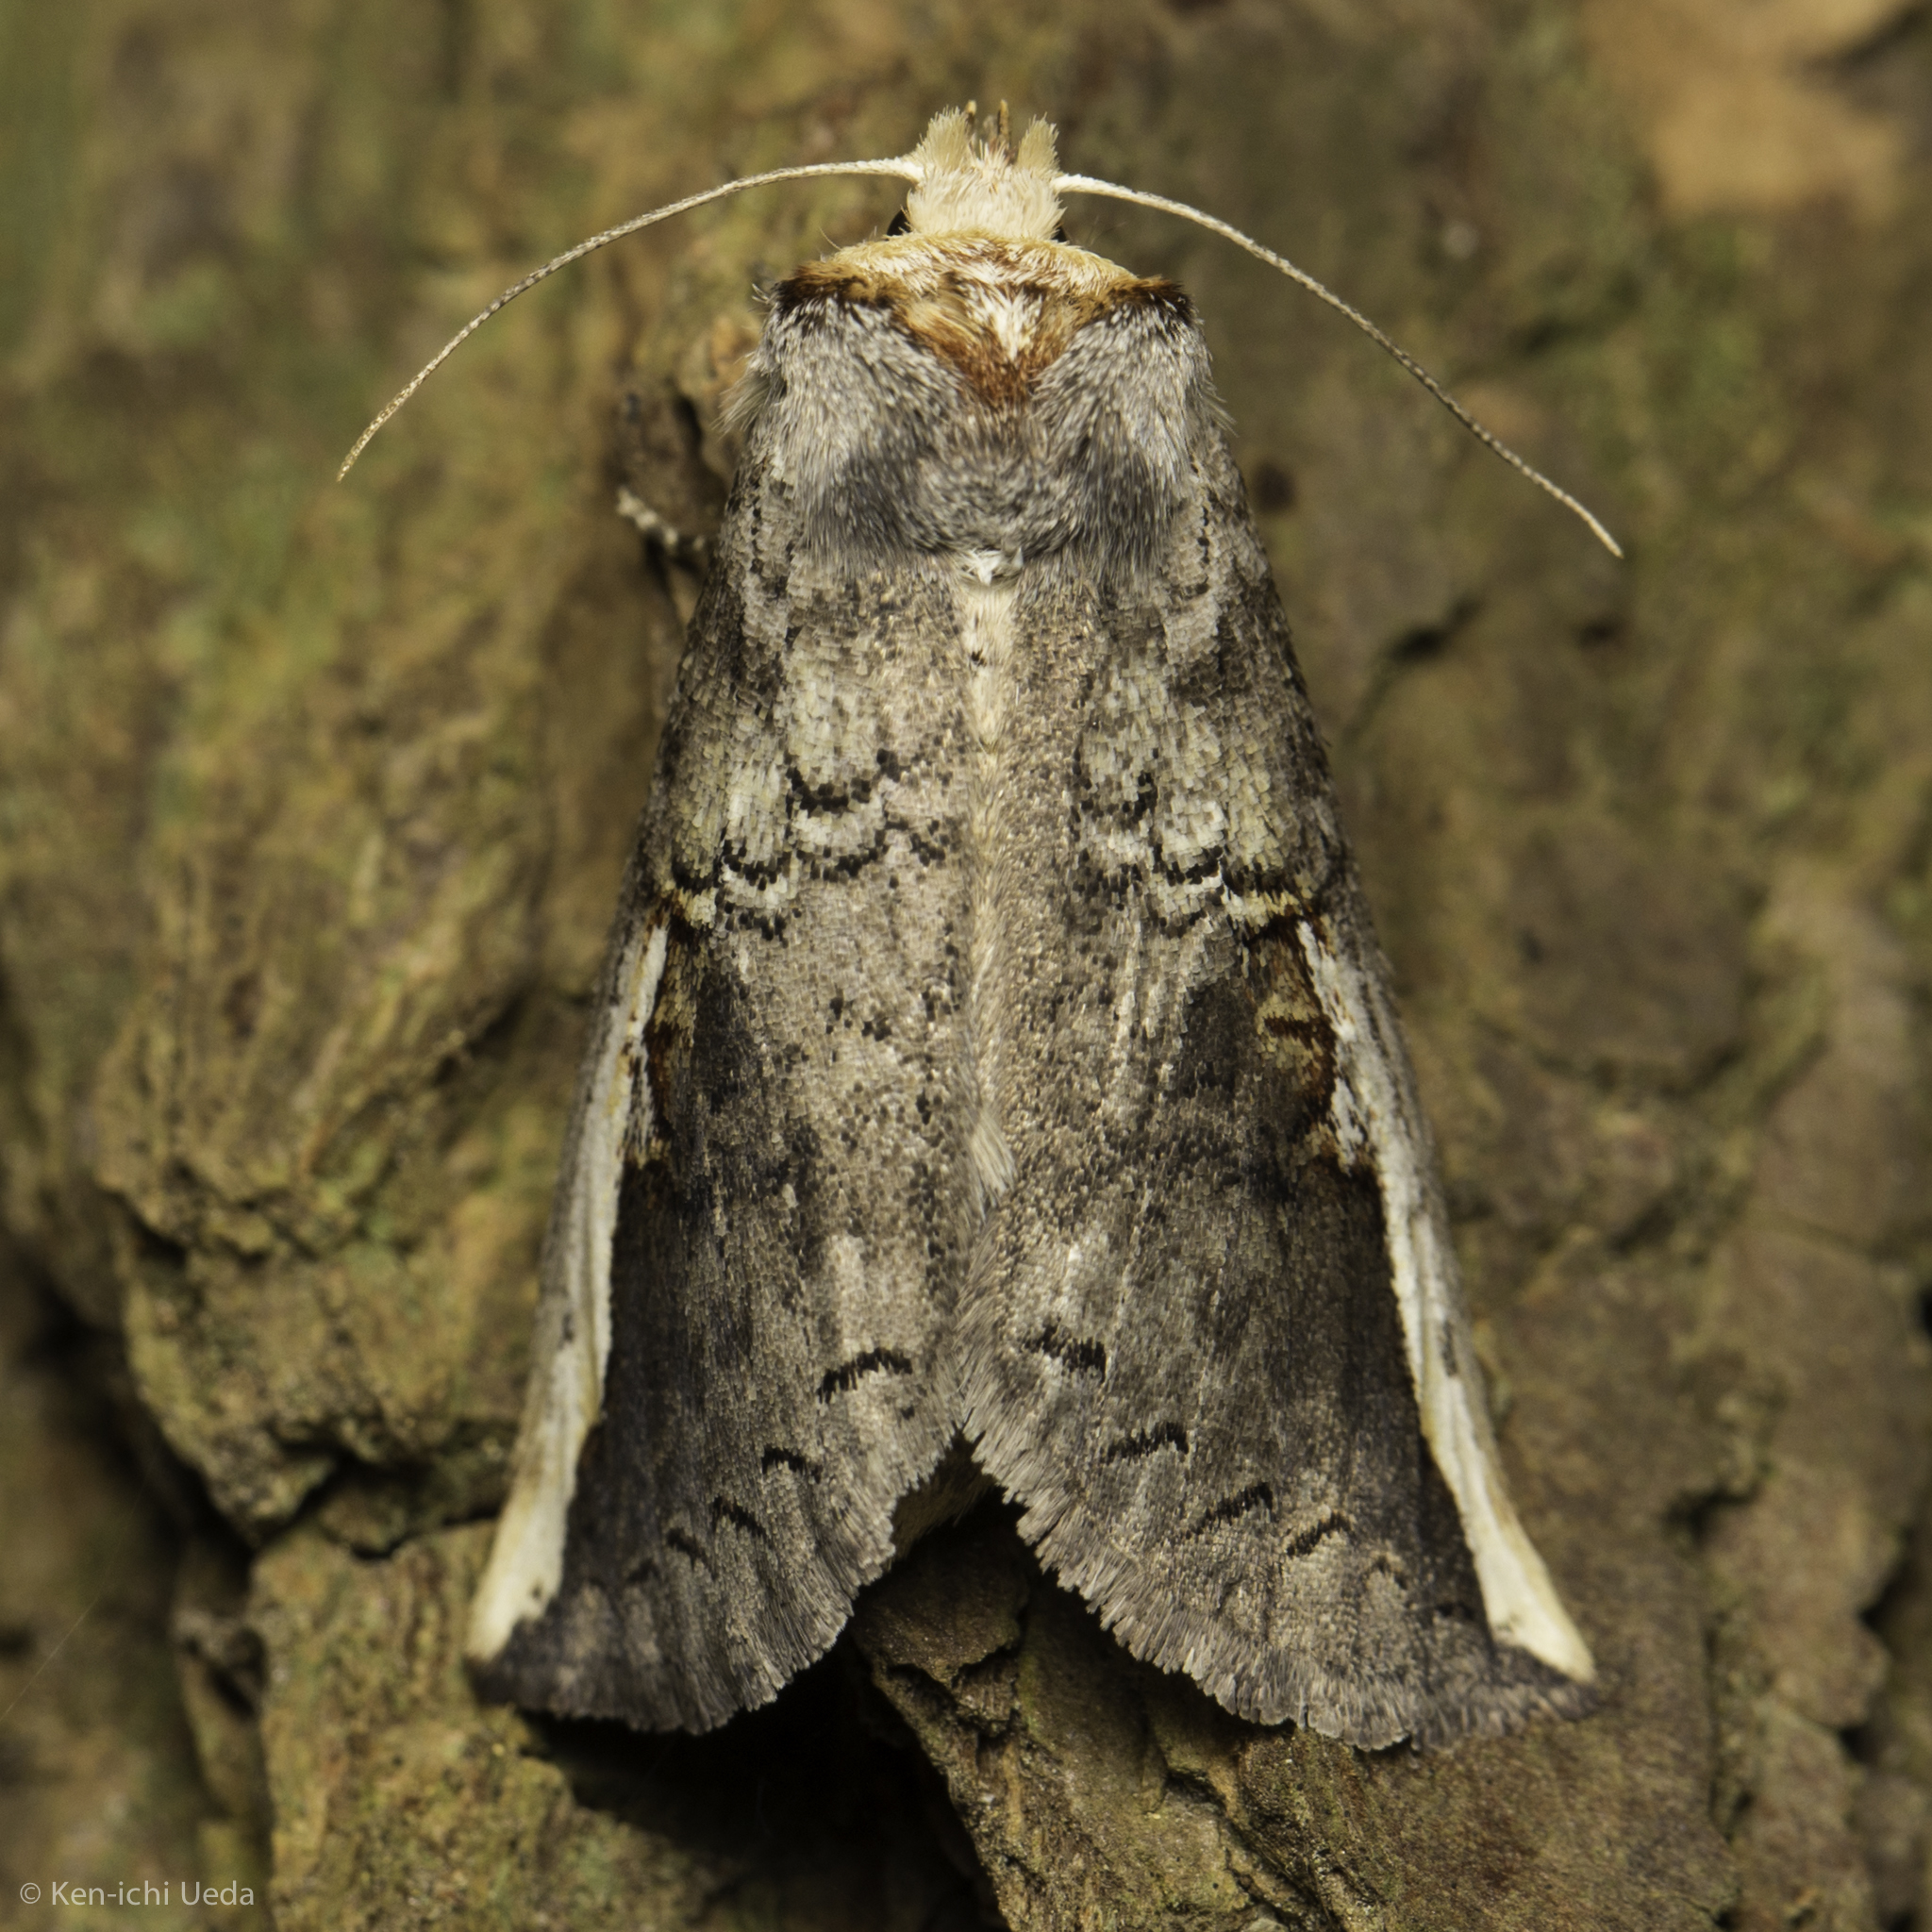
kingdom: Animalia
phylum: Arthropoda
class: Insecta
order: Lepidoptera
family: Notodontidae
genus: Symmerista
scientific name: Symmerista
